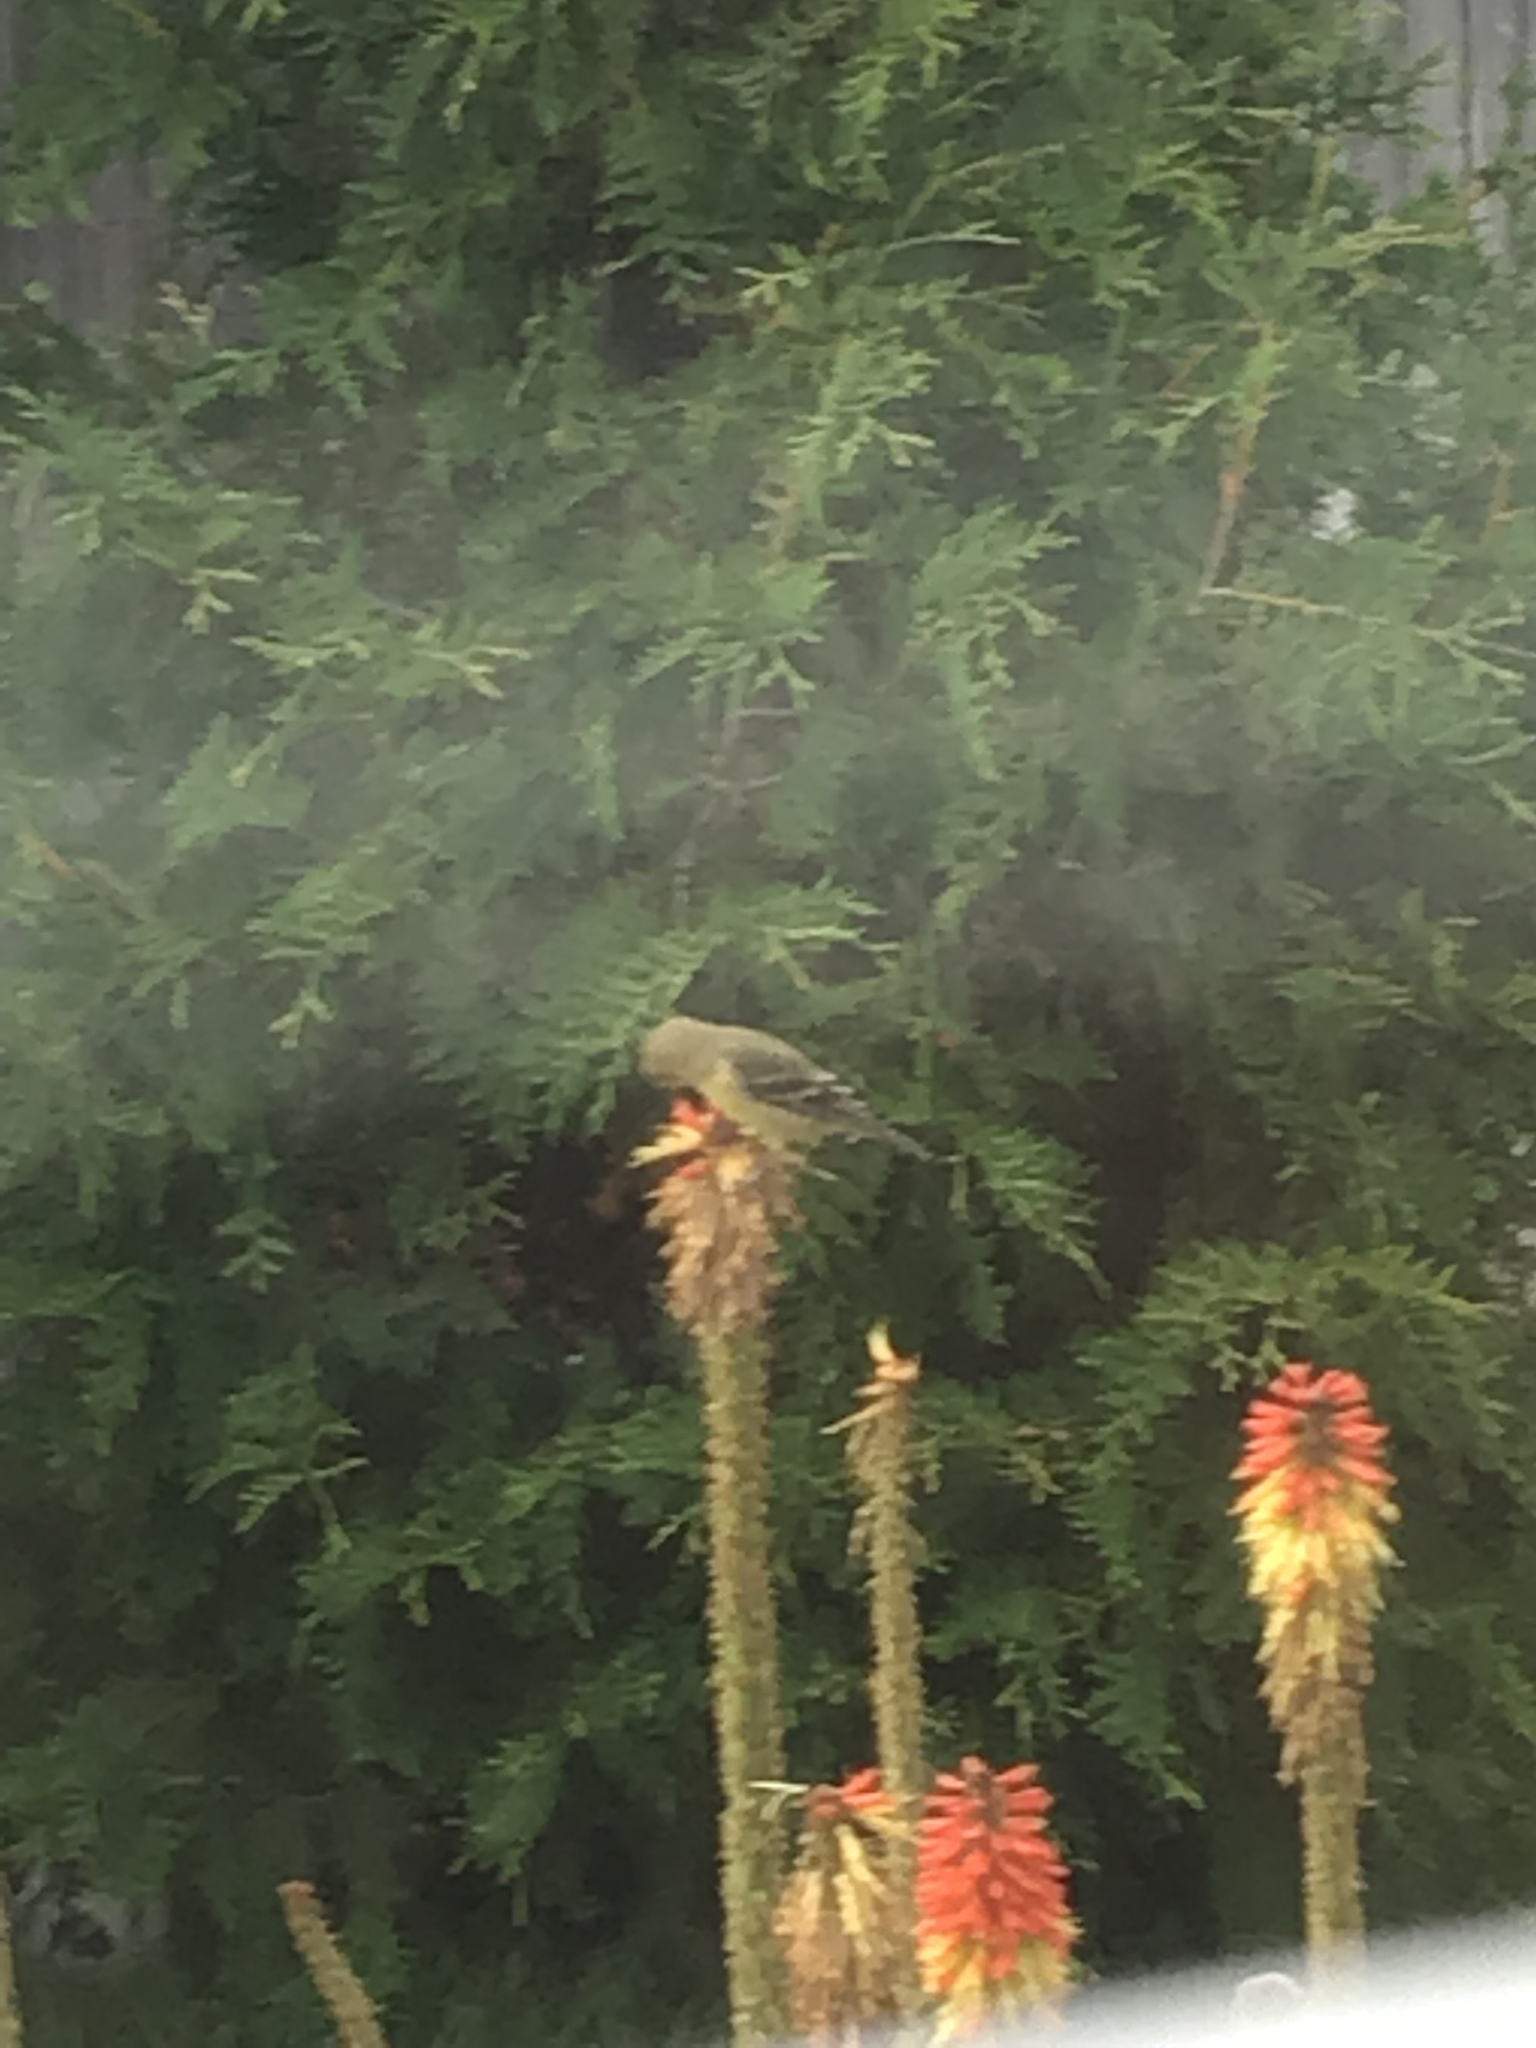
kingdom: Animalia
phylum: Chordata
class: Aves
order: Passeriformes
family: Fringillidae
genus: Spinus
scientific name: Spinus psaltria
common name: Lesser goldfinch
